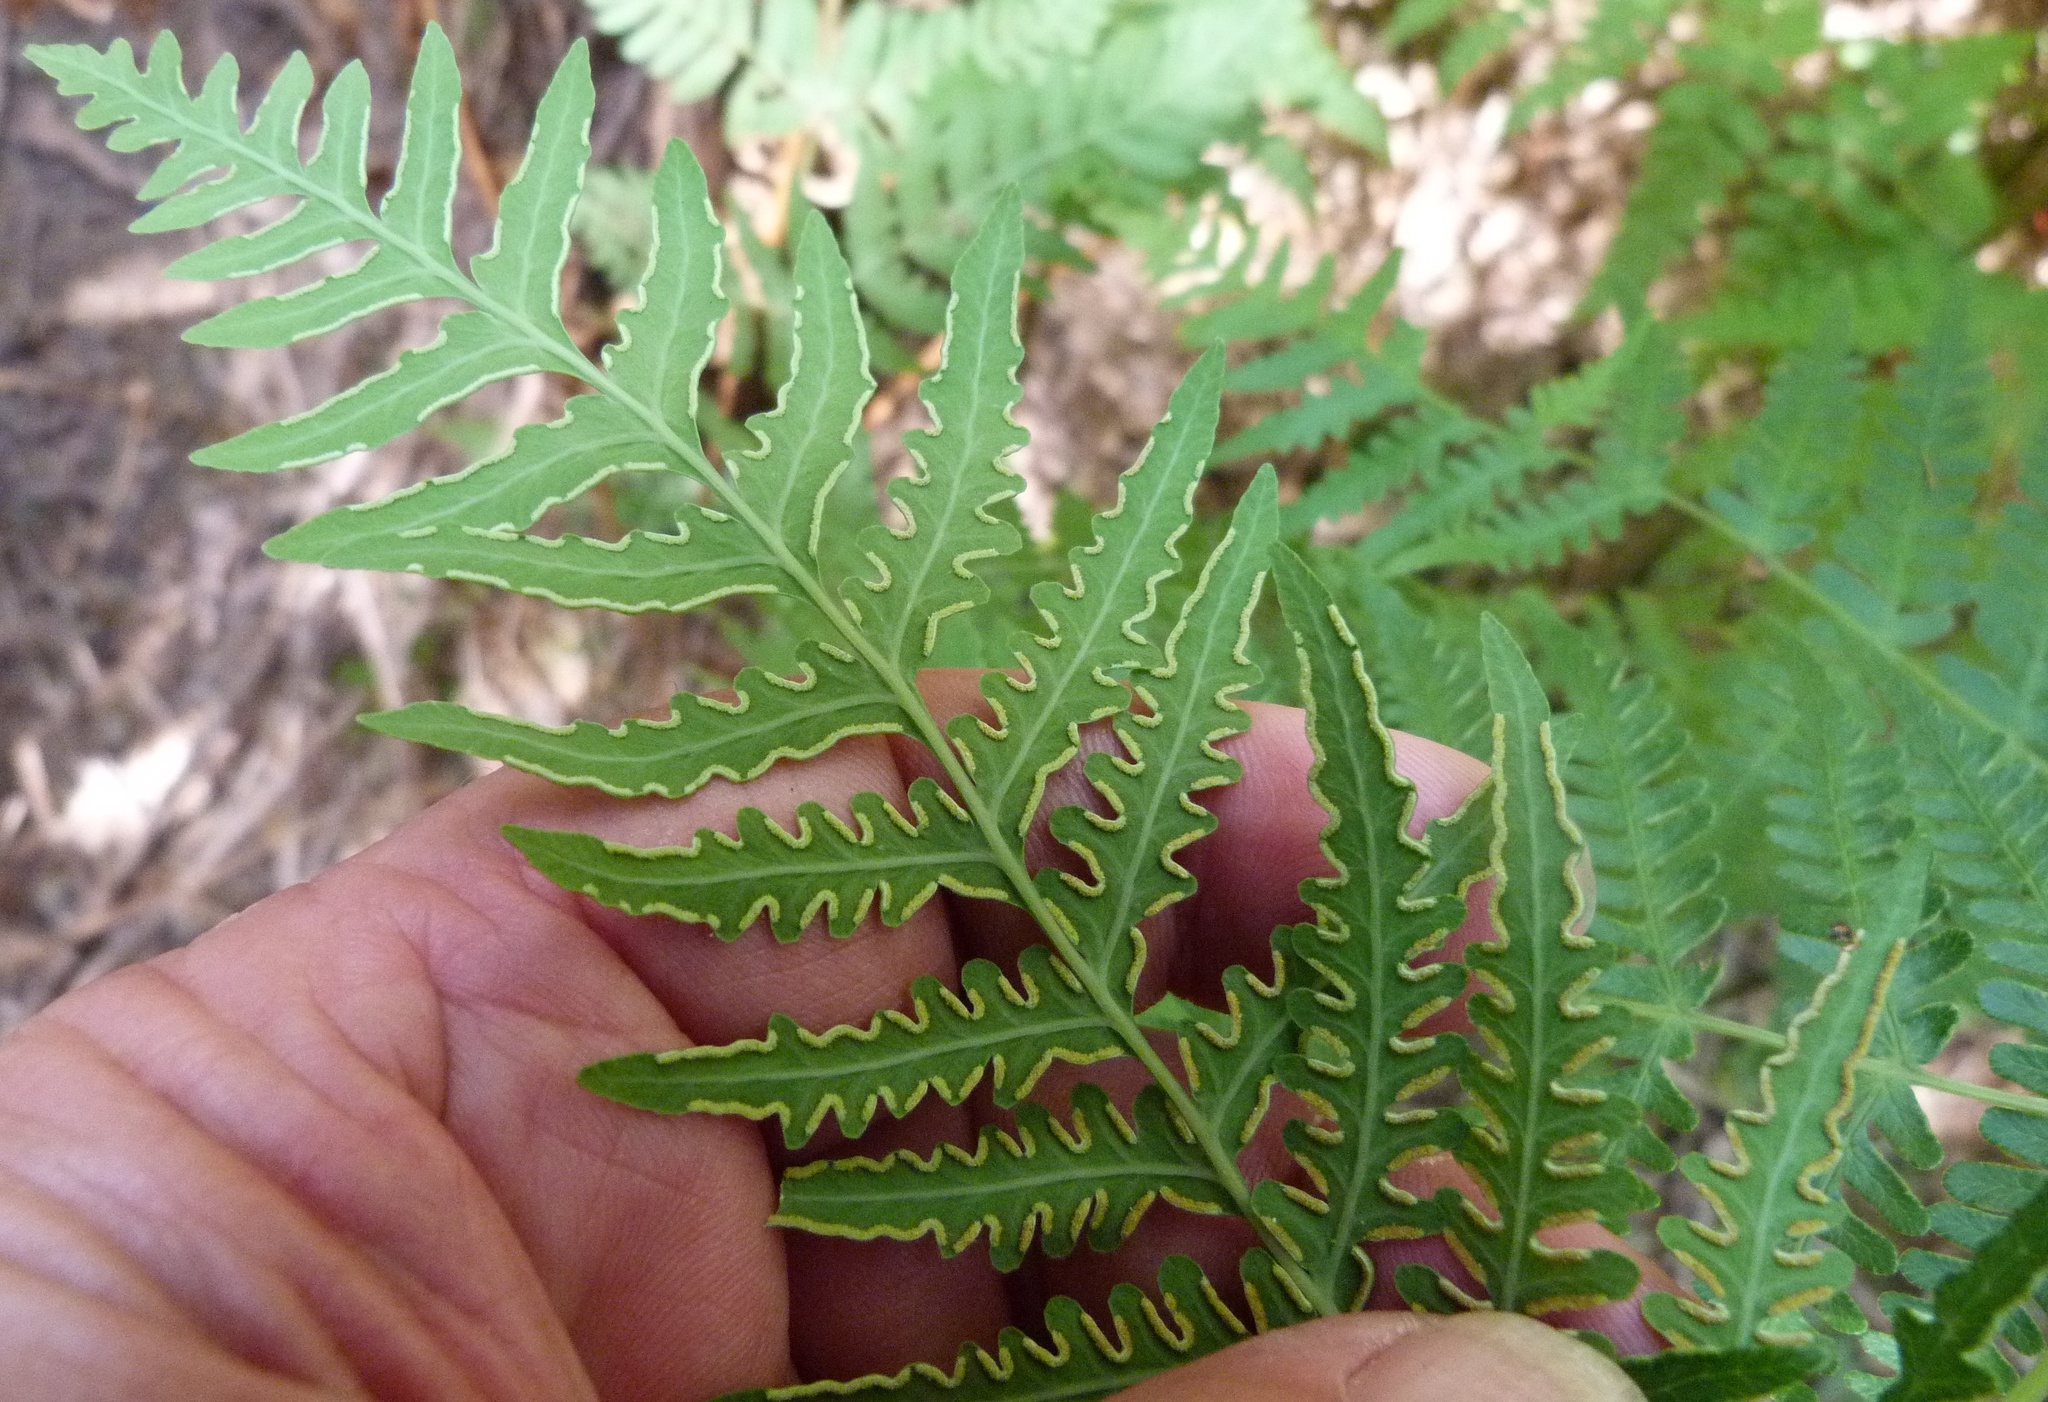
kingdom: Plantae
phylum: Tracheophyta
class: Polypodiopsida
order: Polypodiales
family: Dennstaedtiaceae
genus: Histiopteris
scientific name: Histiopteris incisa
